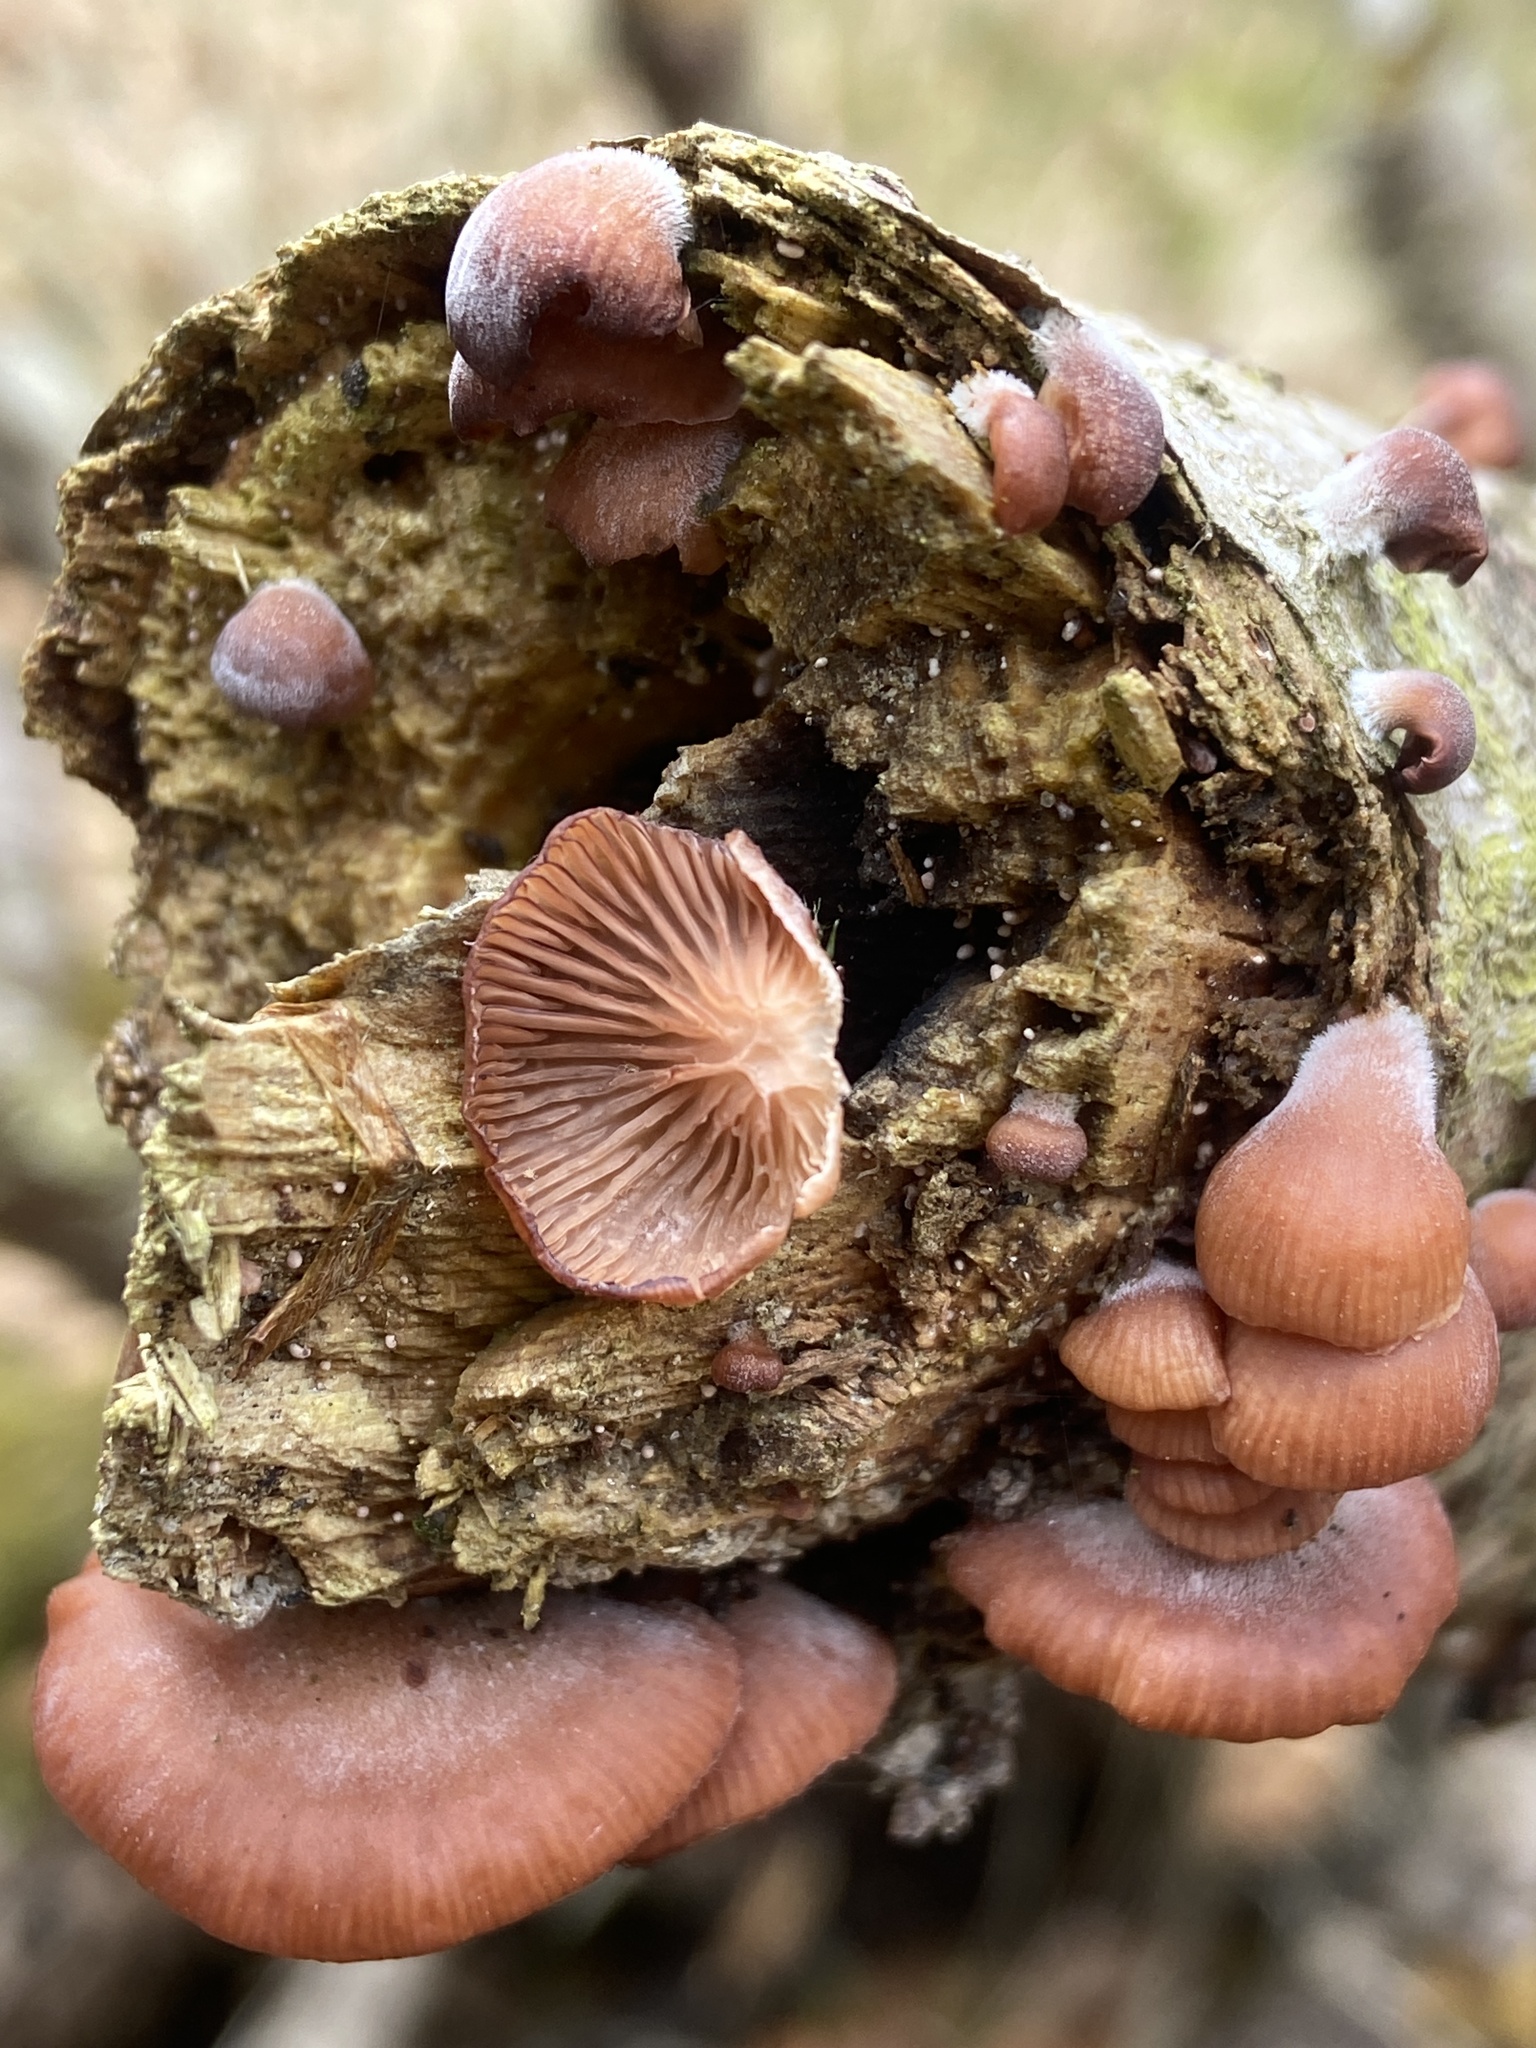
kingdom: Fungi
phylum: Basidiomycota
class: Agaricomycetes
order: Agaricales
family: Mycenaceae
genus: Panellus
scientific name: Panellus ringens
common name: Winter oysterling
